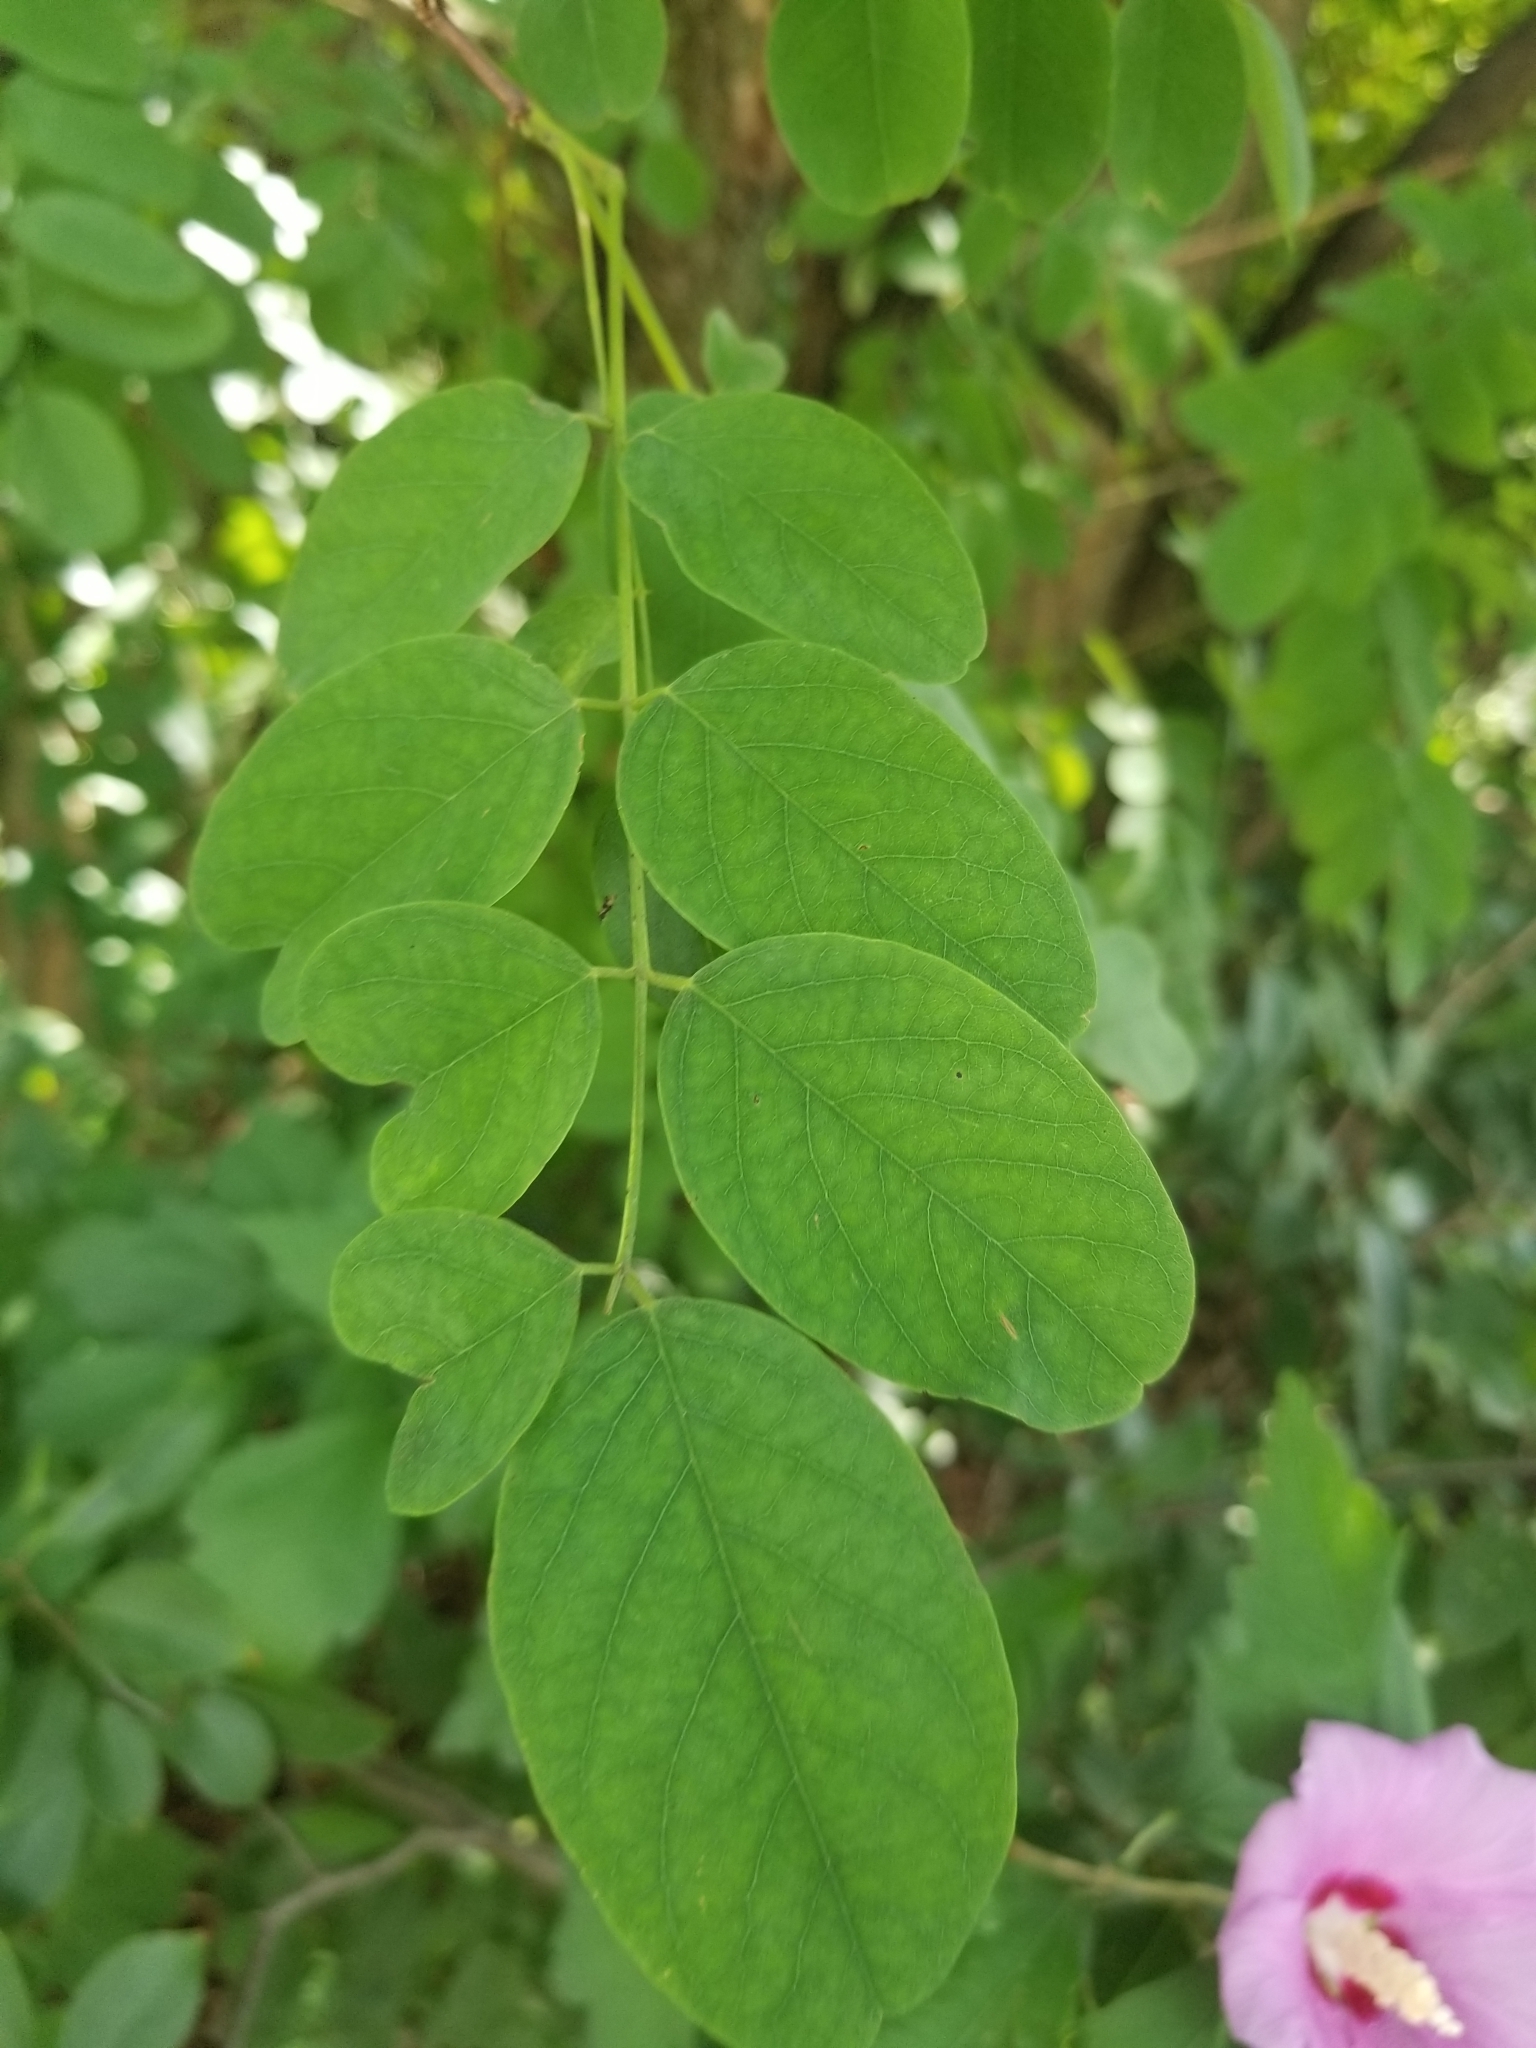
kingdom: Plantae
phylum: Tracheophyta
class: Magnoliopsida
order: Fabales
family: Fabaceae
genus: Robinia
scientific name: Robinia pseudoacacia
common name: Black locust
